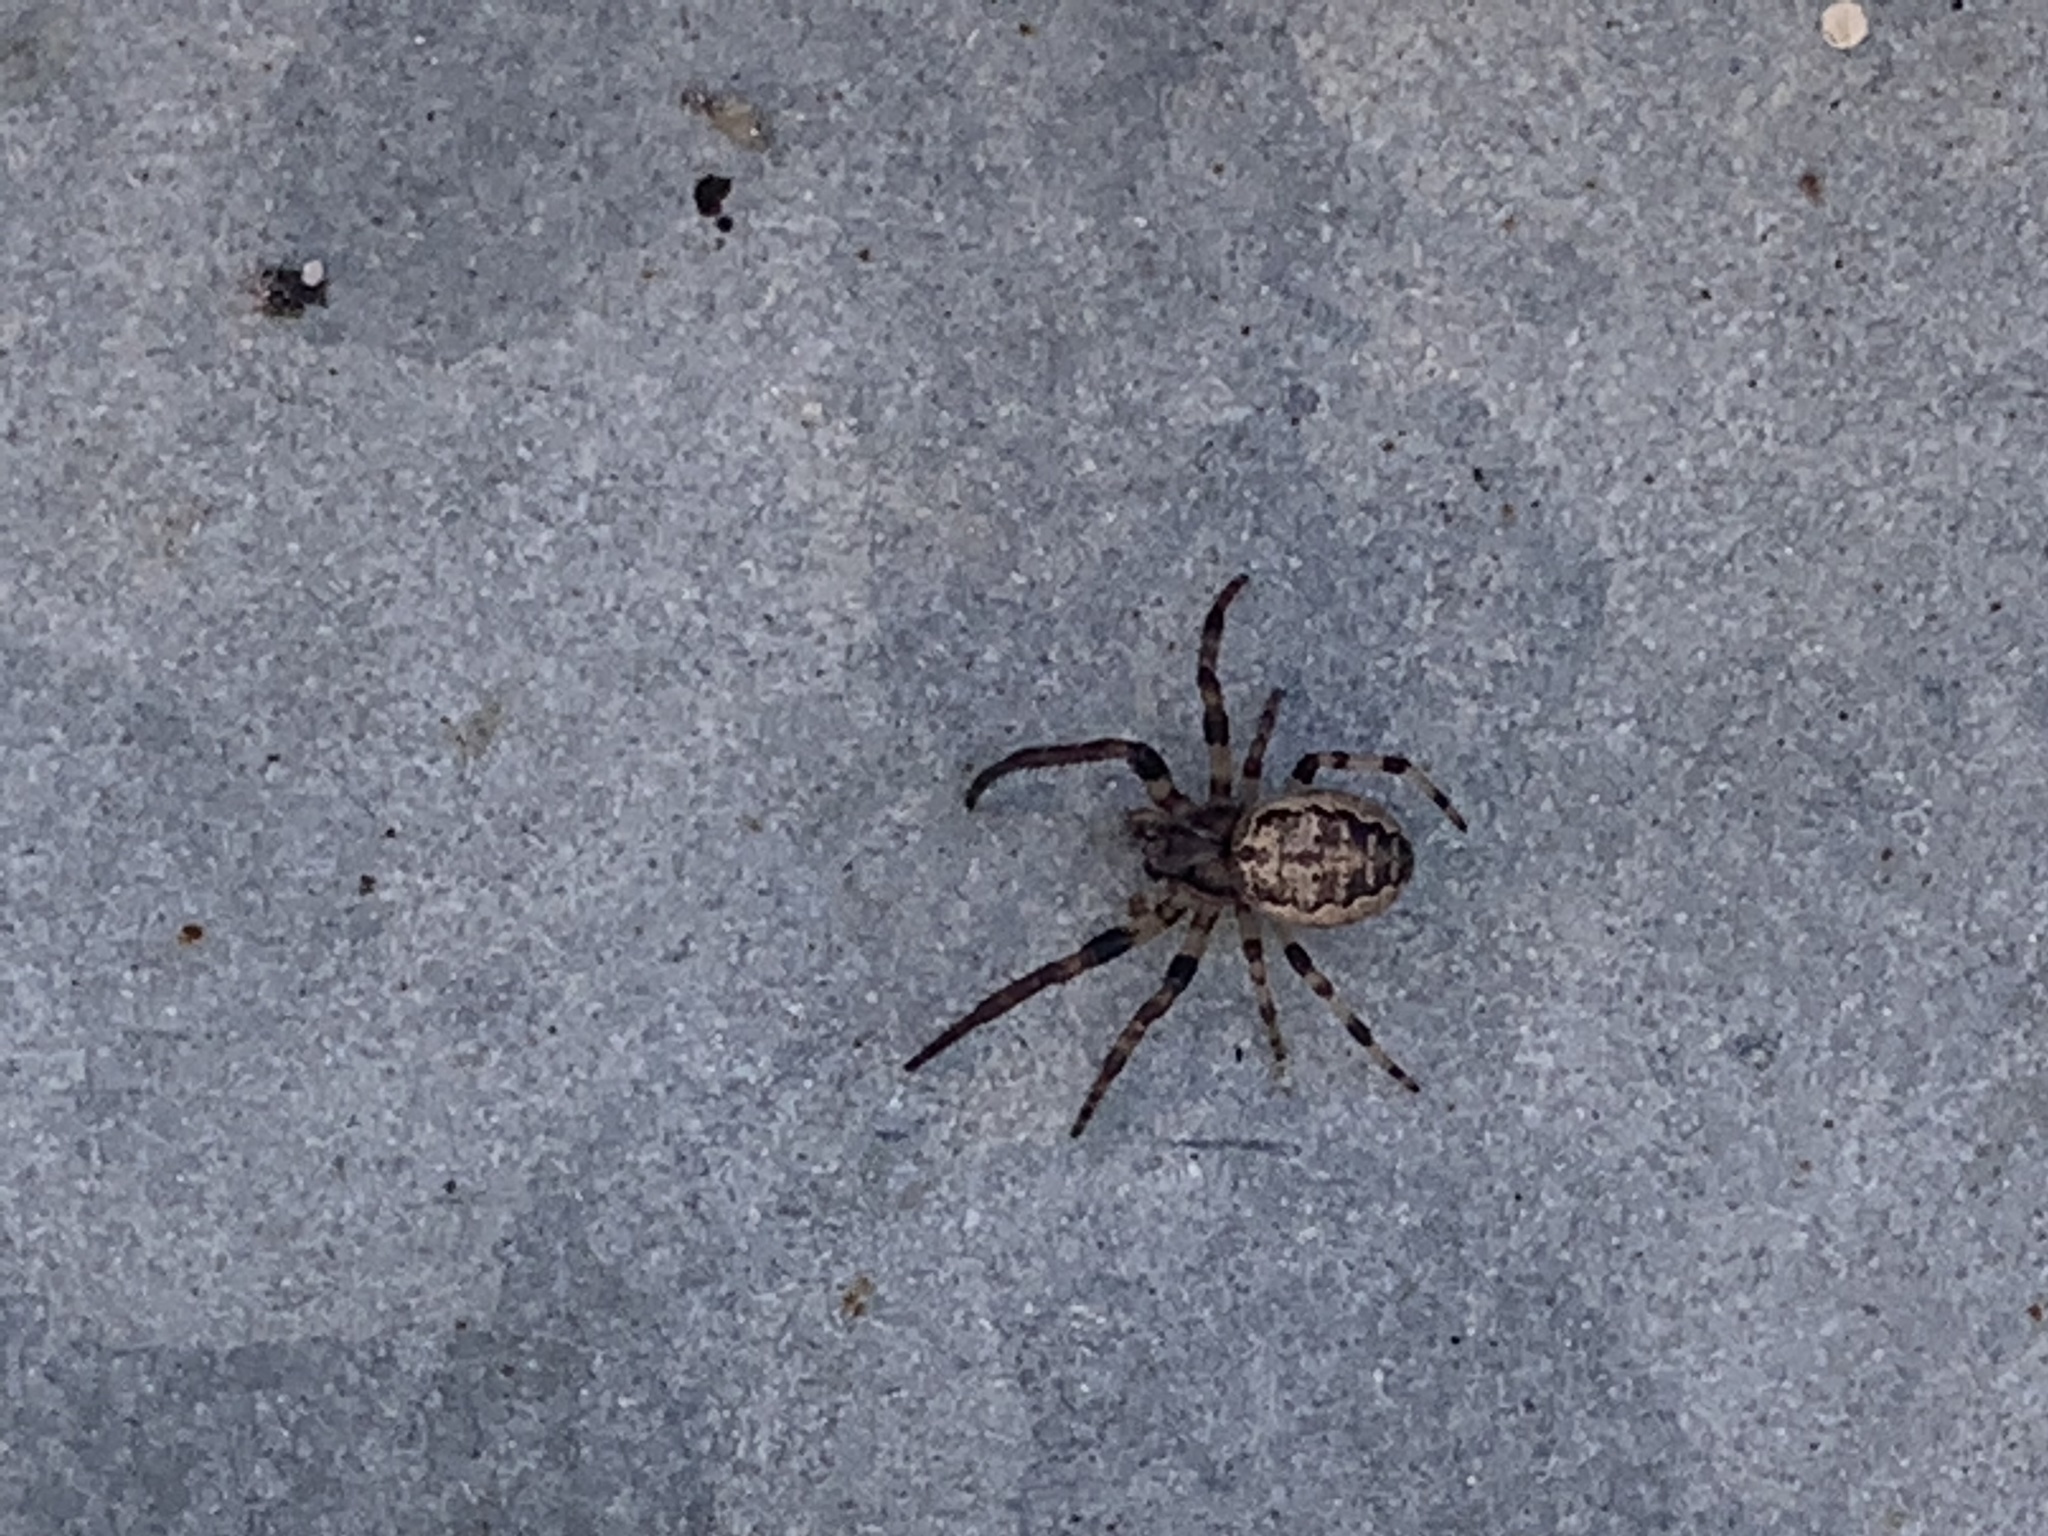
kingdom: Animalia
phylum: Arthropoda
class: Arachnida
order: Araneae
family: Araneidae
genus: Larinioides
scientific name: Larinioides cornutus
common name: Furrow orbweaver
